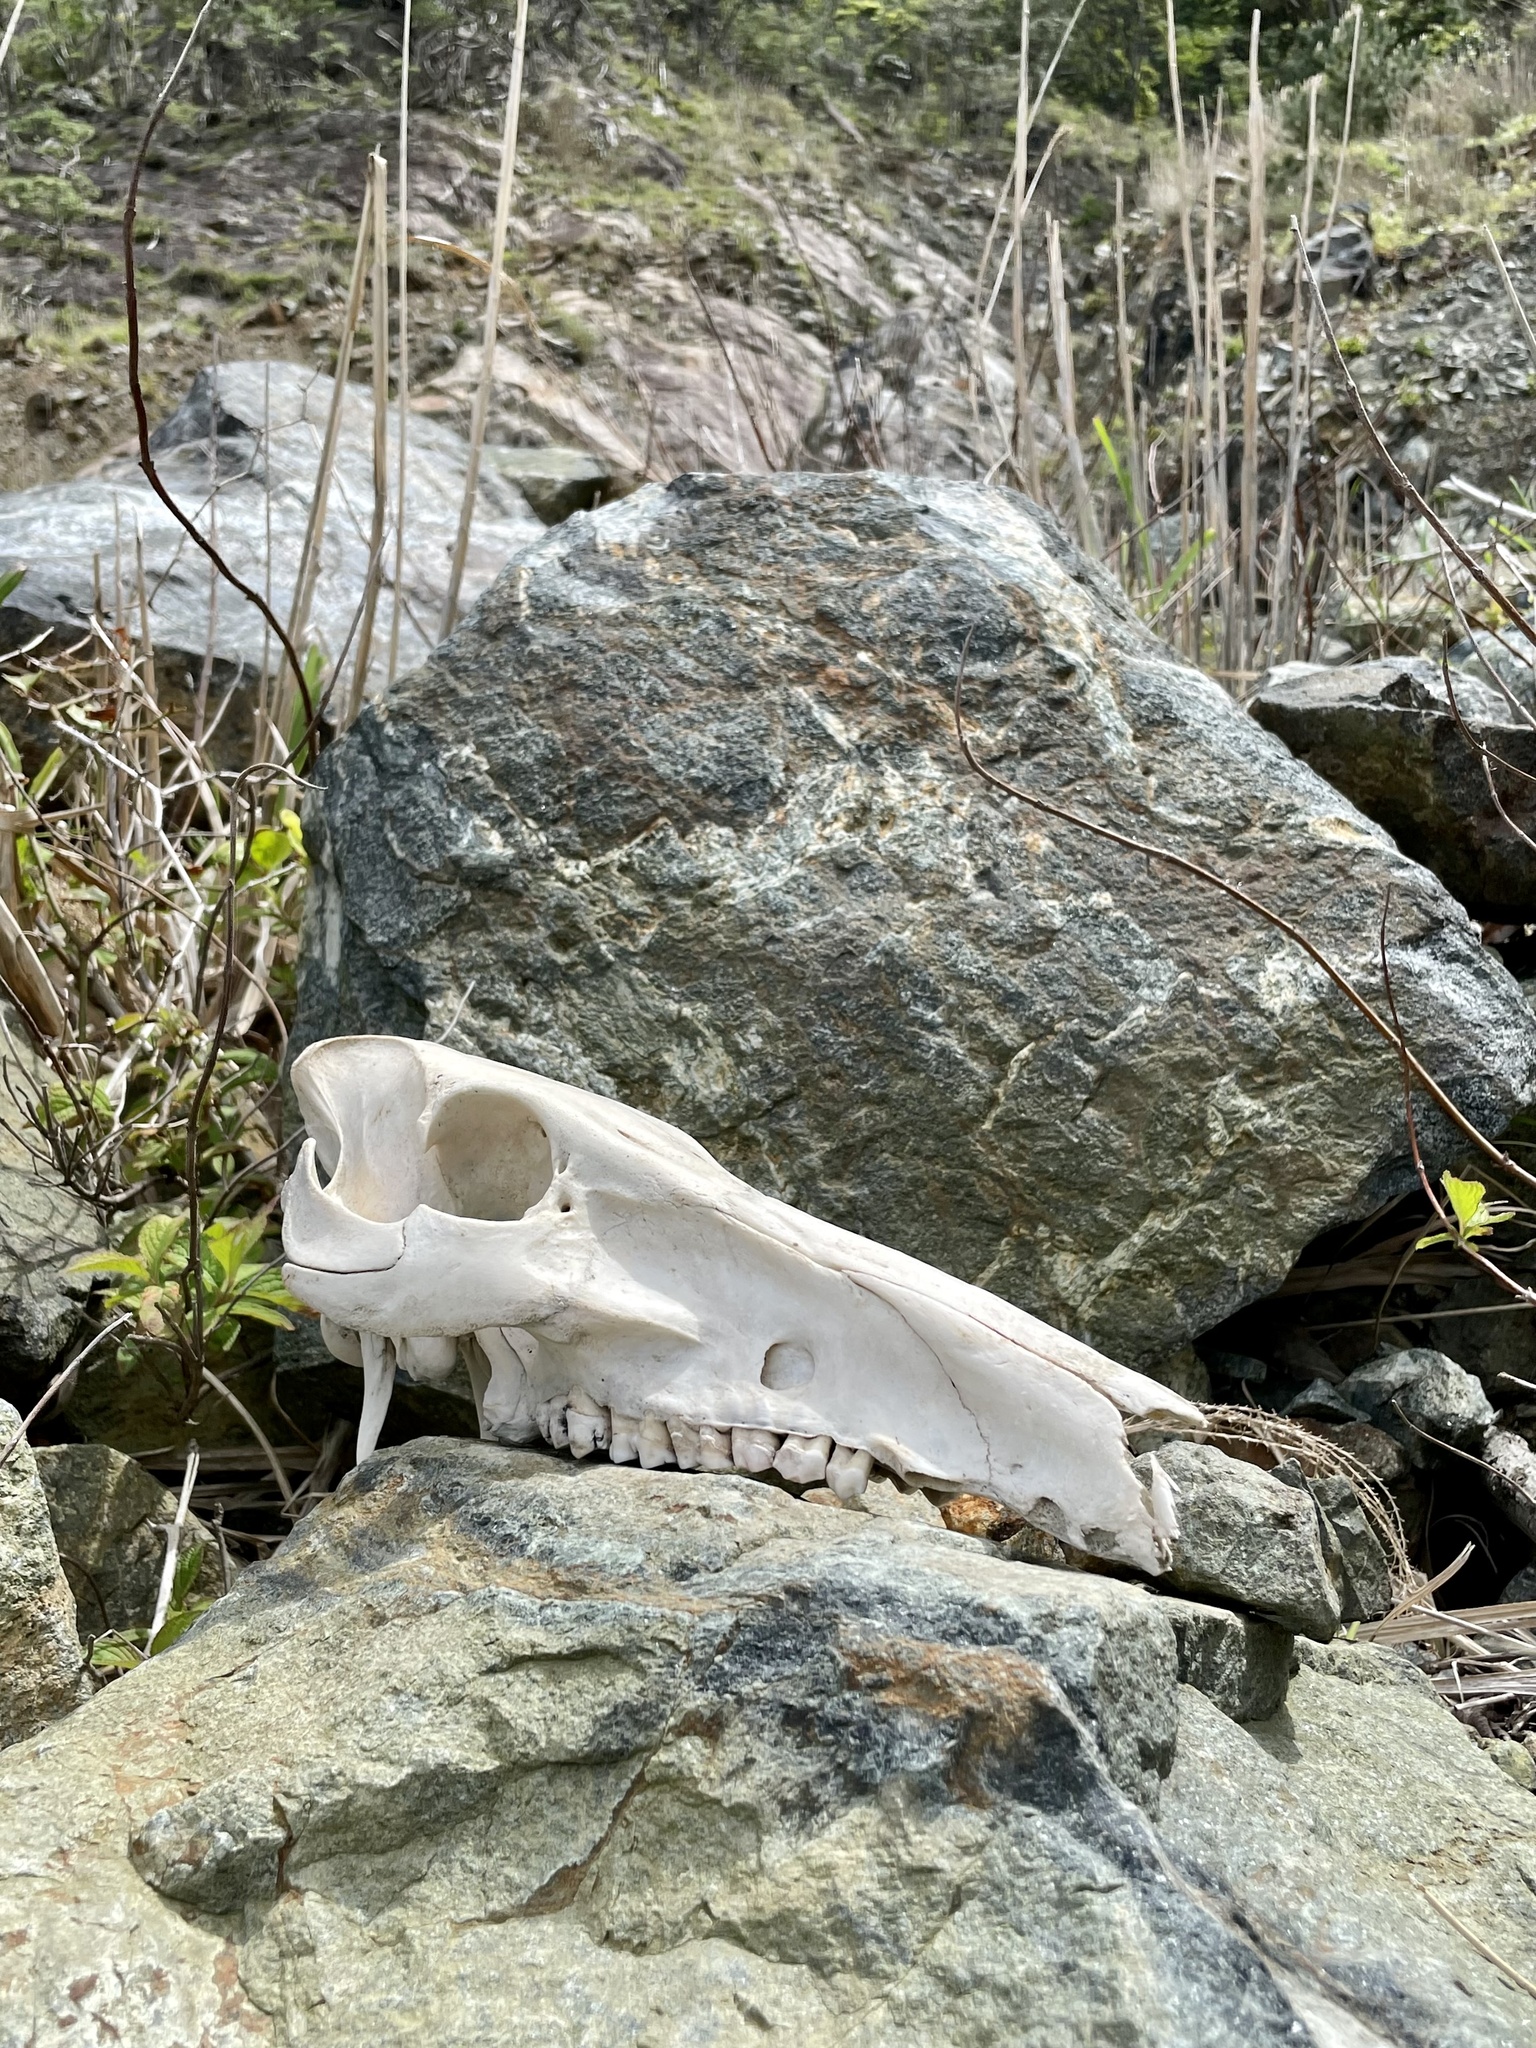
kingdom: Animalia
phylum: Chordata
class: Mammalia
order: Artiodactyla
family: Suidae
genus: Sus
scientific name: Sus scrofa
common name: Wild boar
